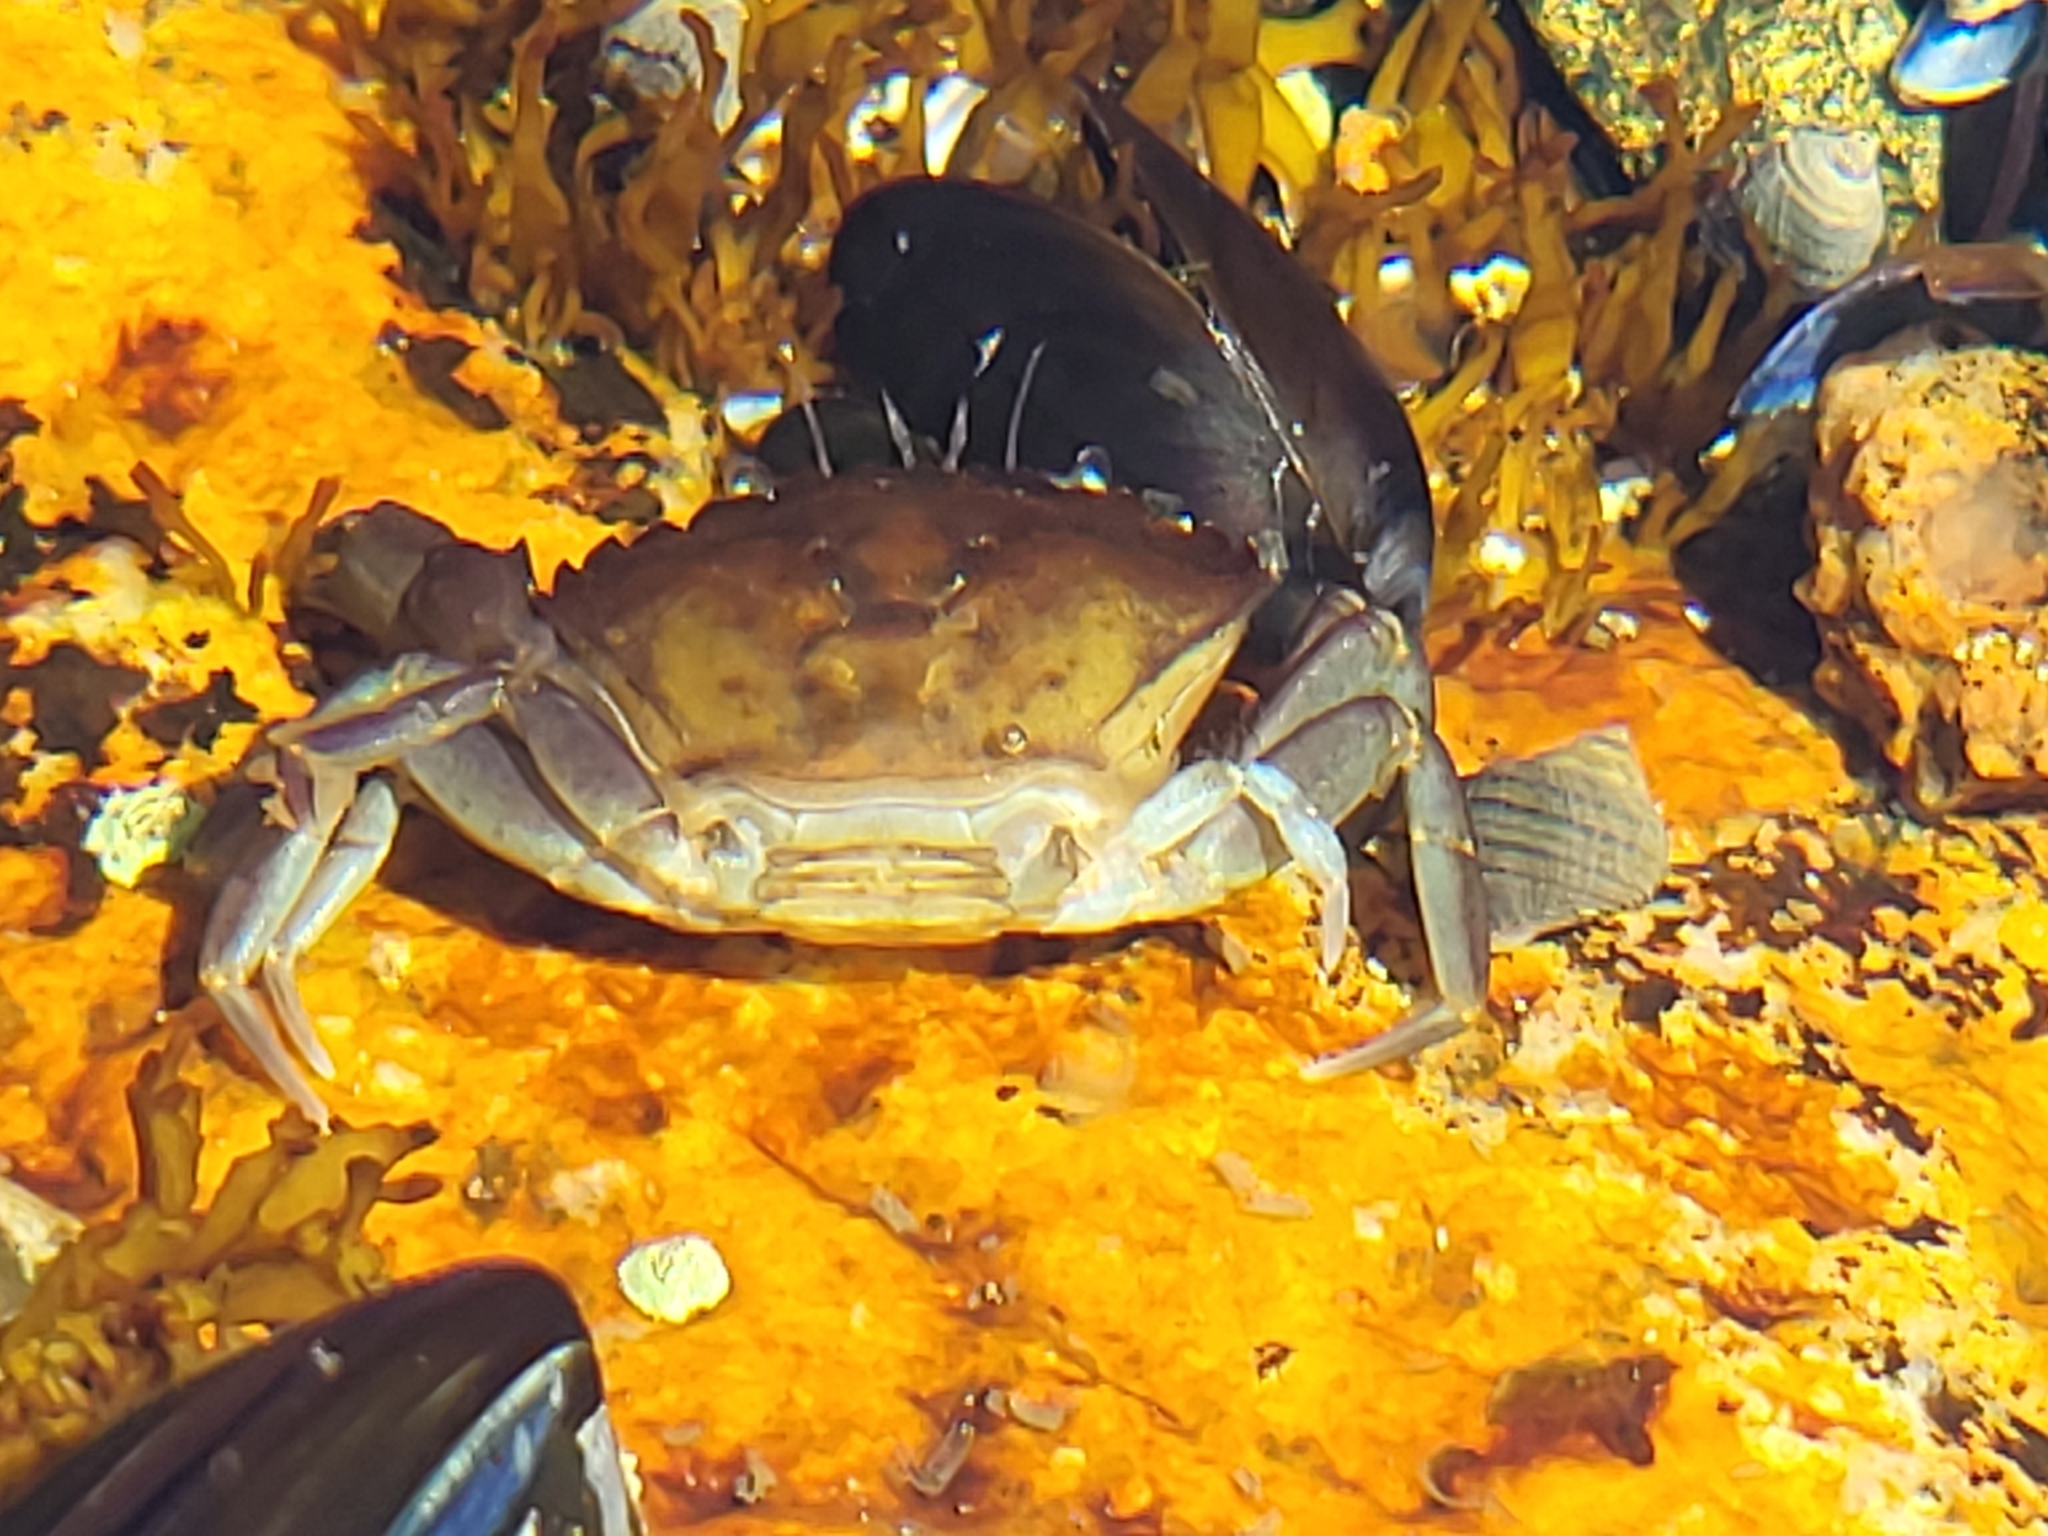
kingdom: Animalia
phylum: Arthropoda
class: Malacostraca
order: Decapoda
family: Carcinidae
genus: Carcinus
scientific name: Carcinus maenas
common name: European green crab
